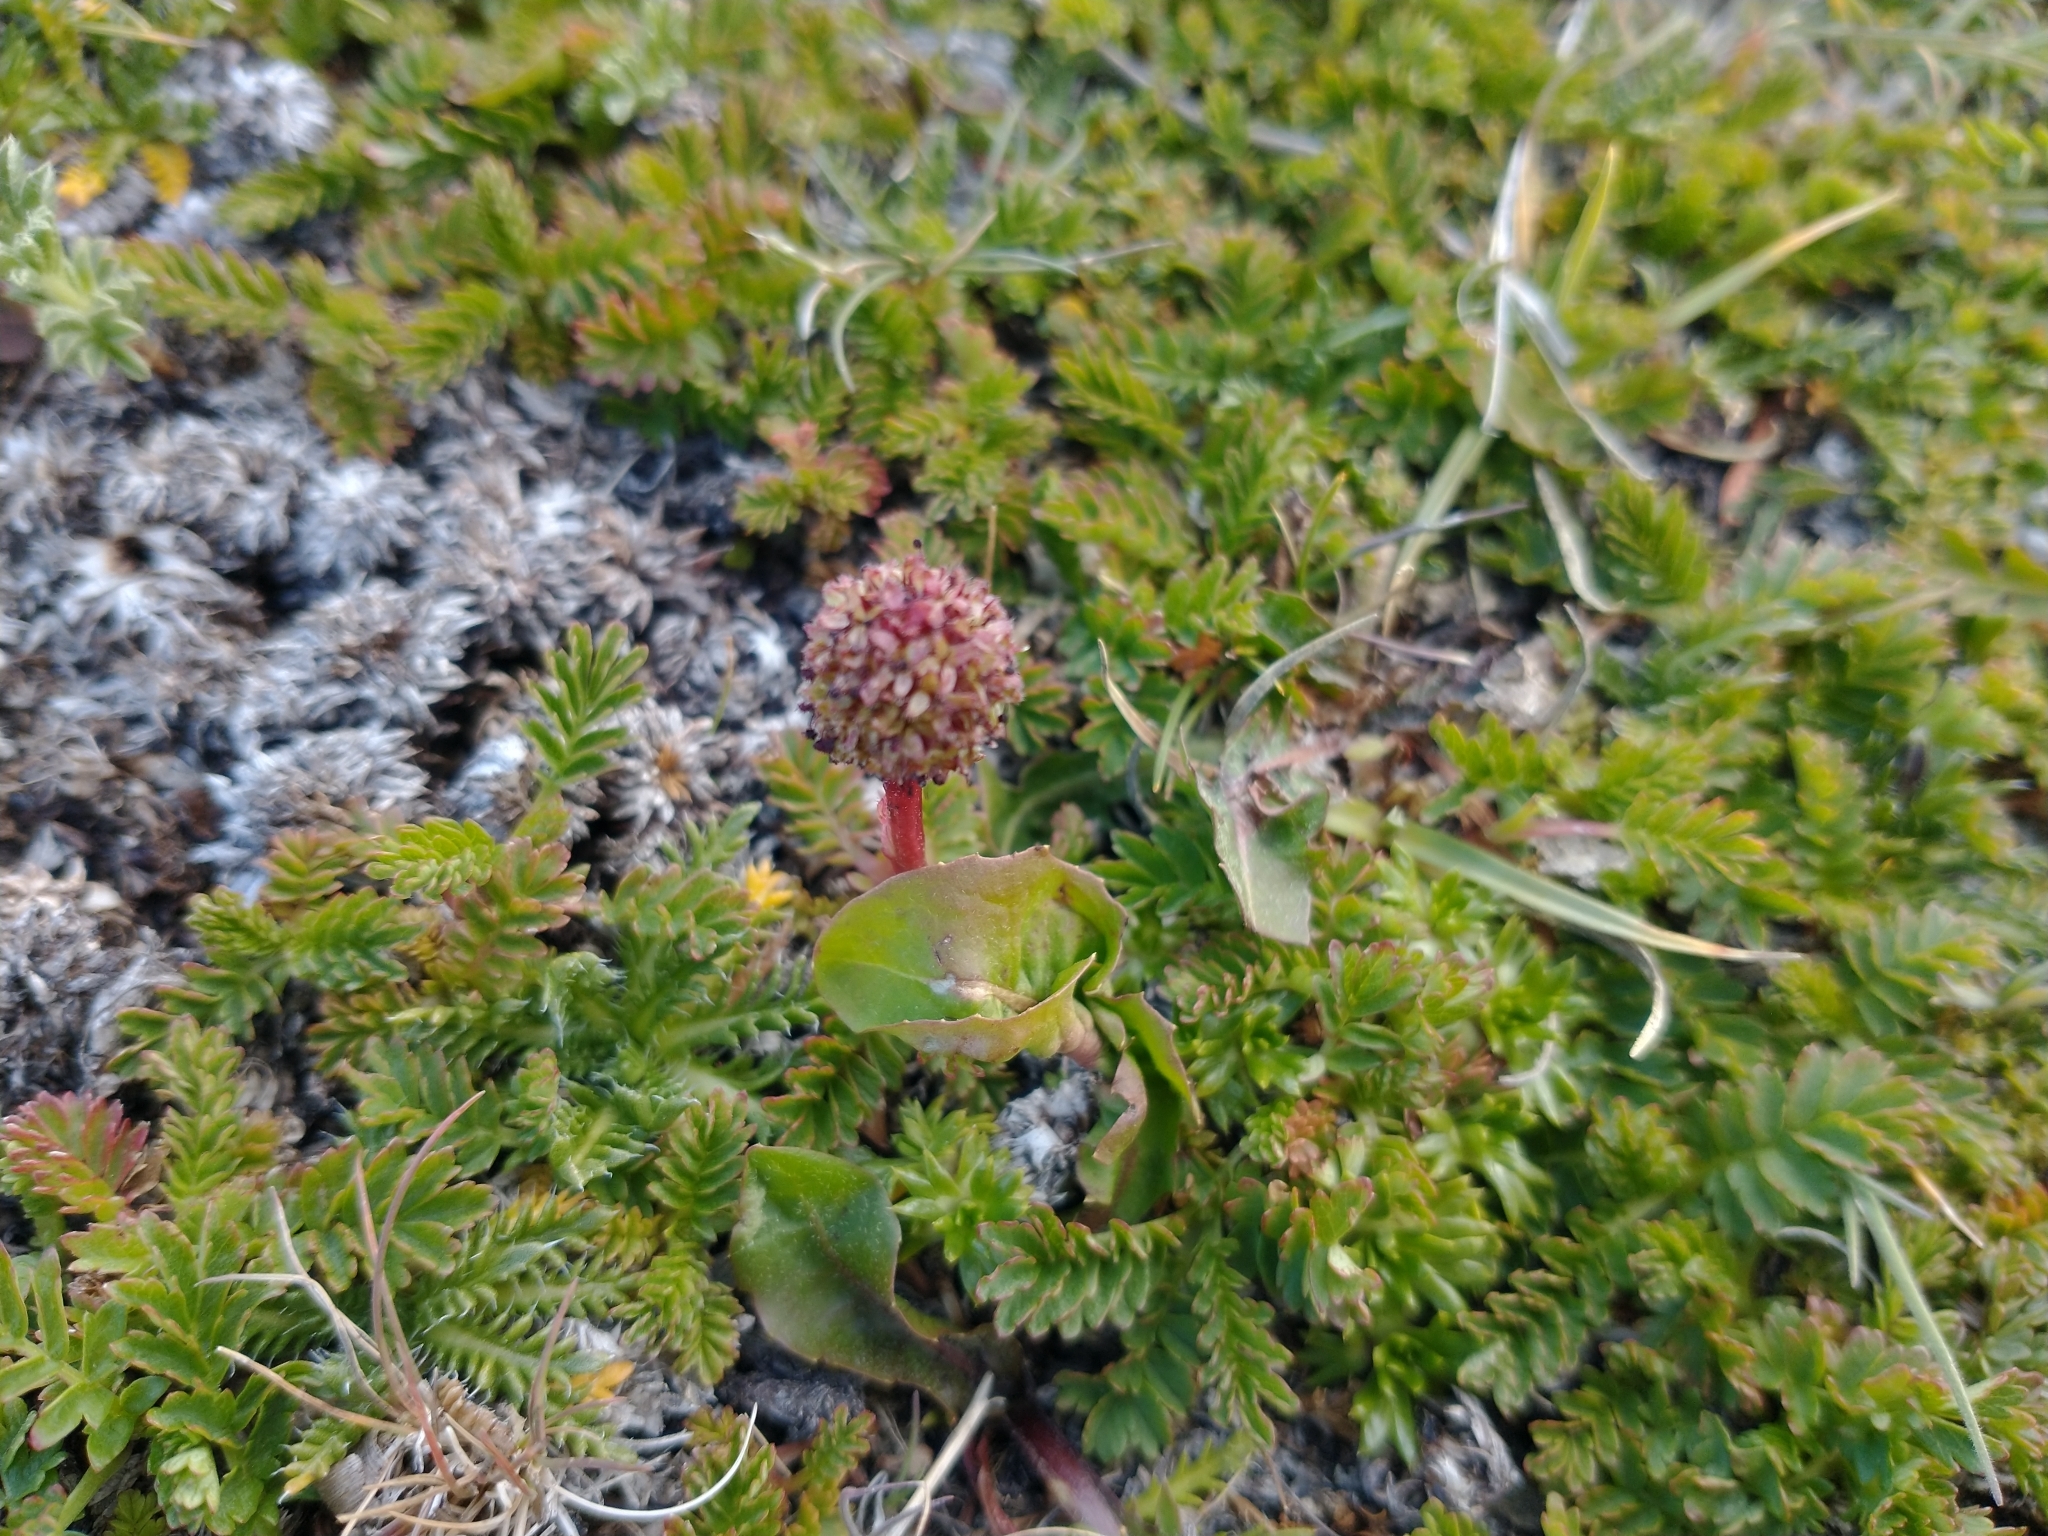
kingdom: Plantae
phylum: Tracheophyta
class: Magnoliopsida
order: Rosales
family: Rosaceae
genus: Acaena
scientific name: Acaena magellanica
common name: New zealand burr
